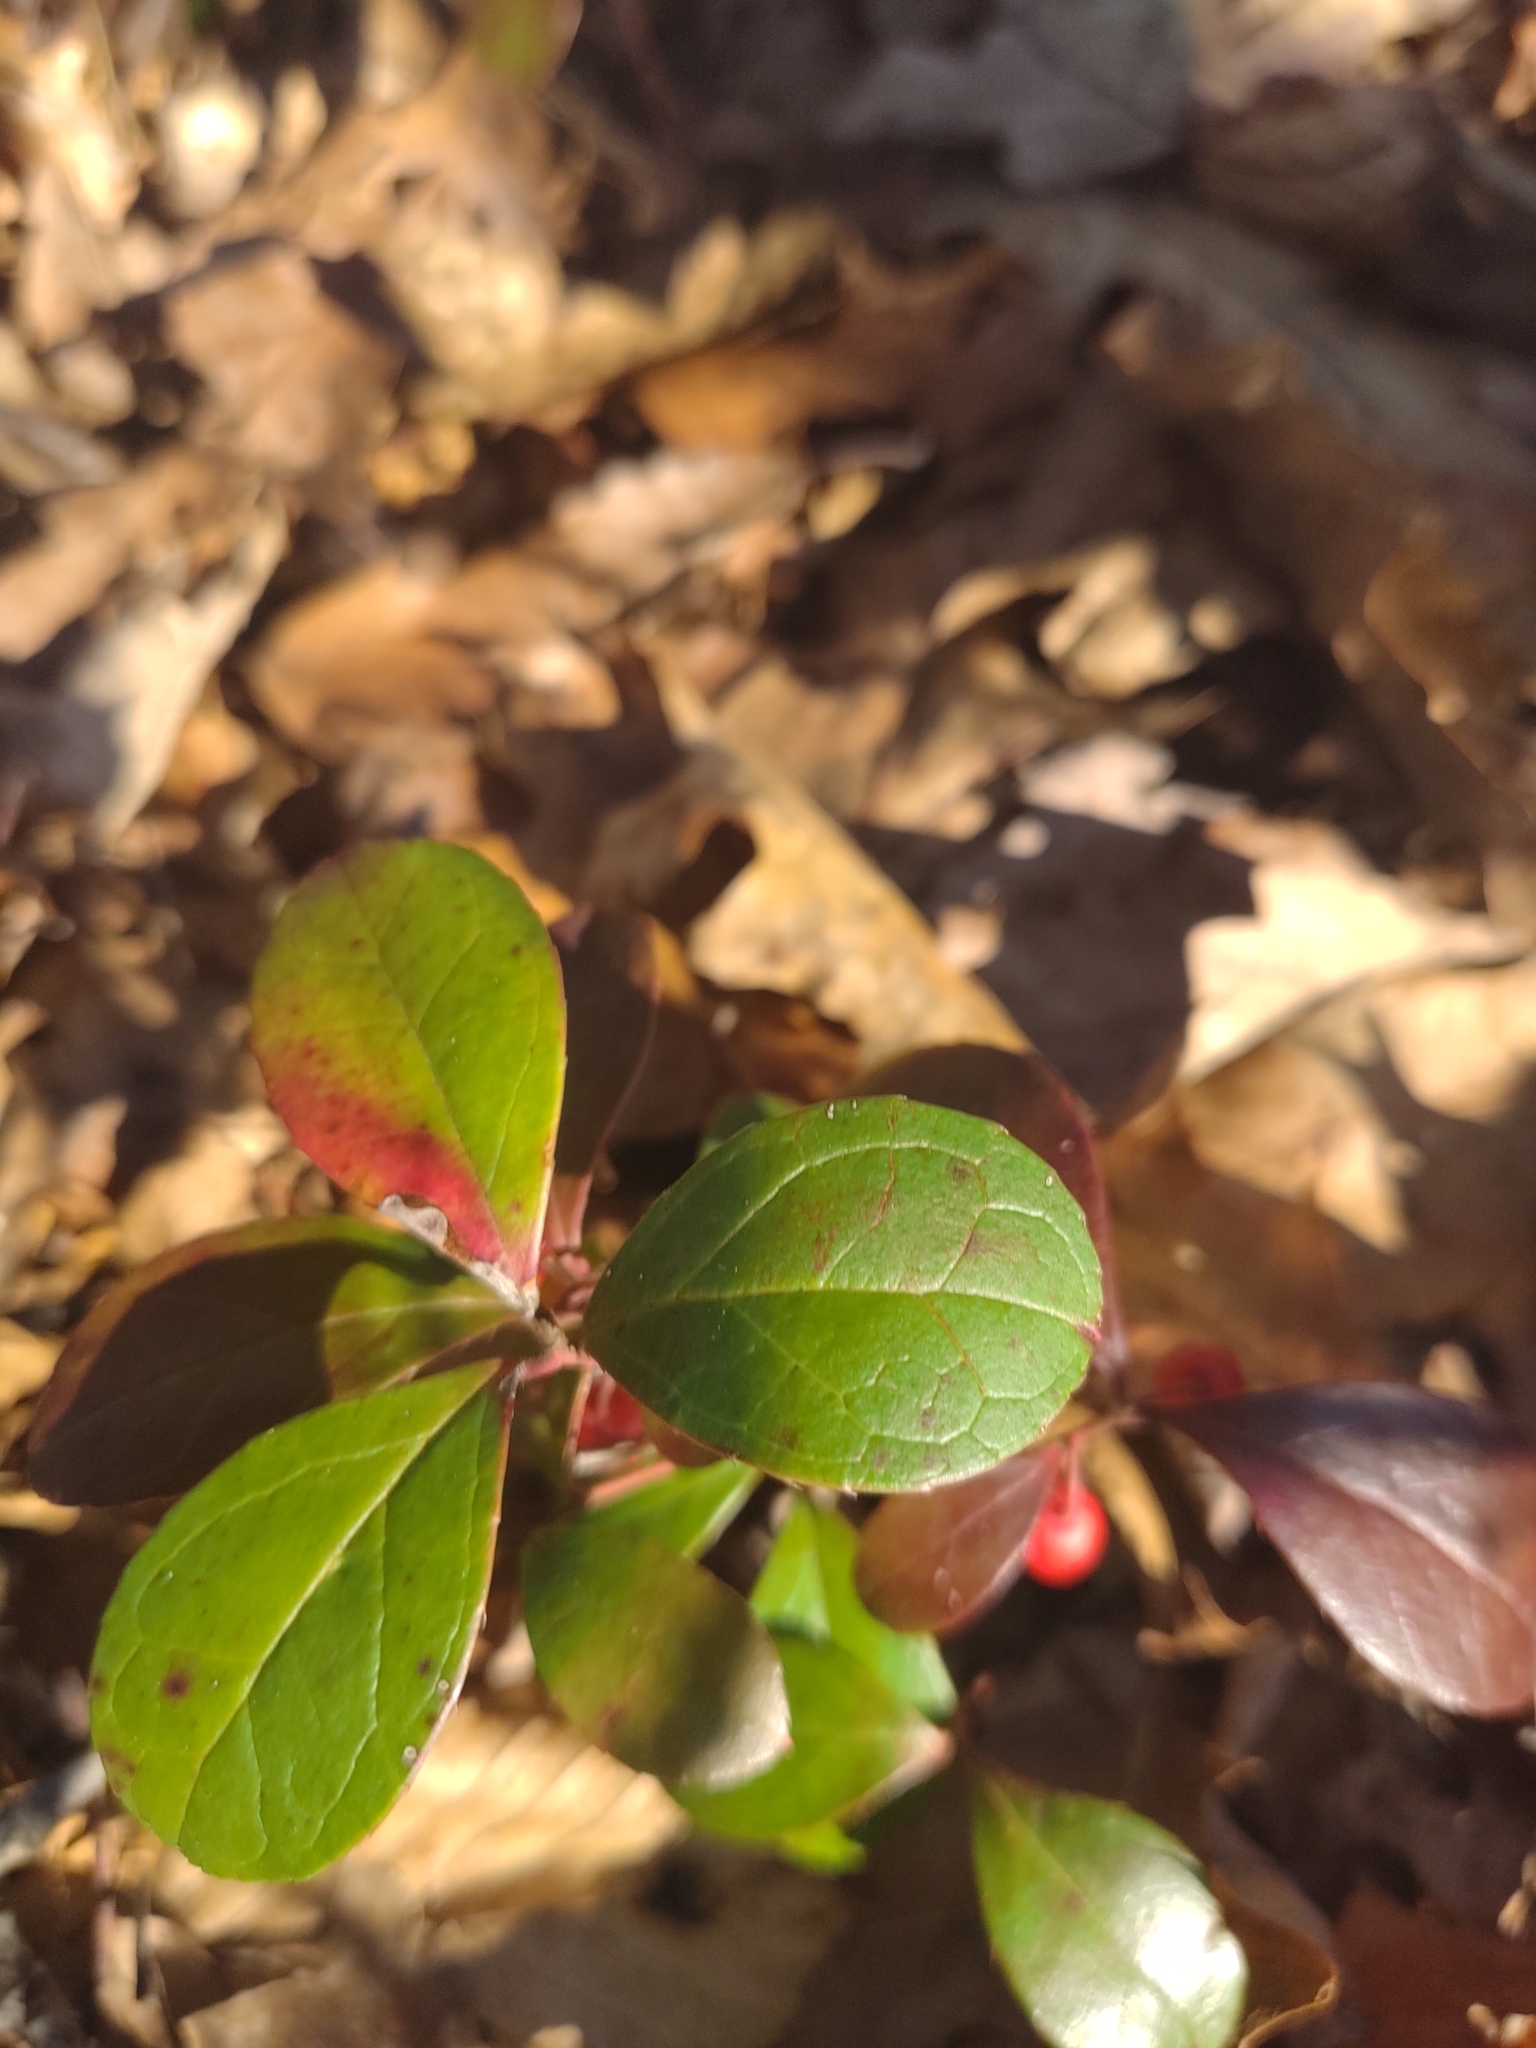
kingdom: Plantae
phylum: Tracheophyta
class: Magnoliopsida
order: Ericales
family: Ericaceae
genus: Gaultheria
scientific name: Gaultheria procumbens
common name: Checkerberry
